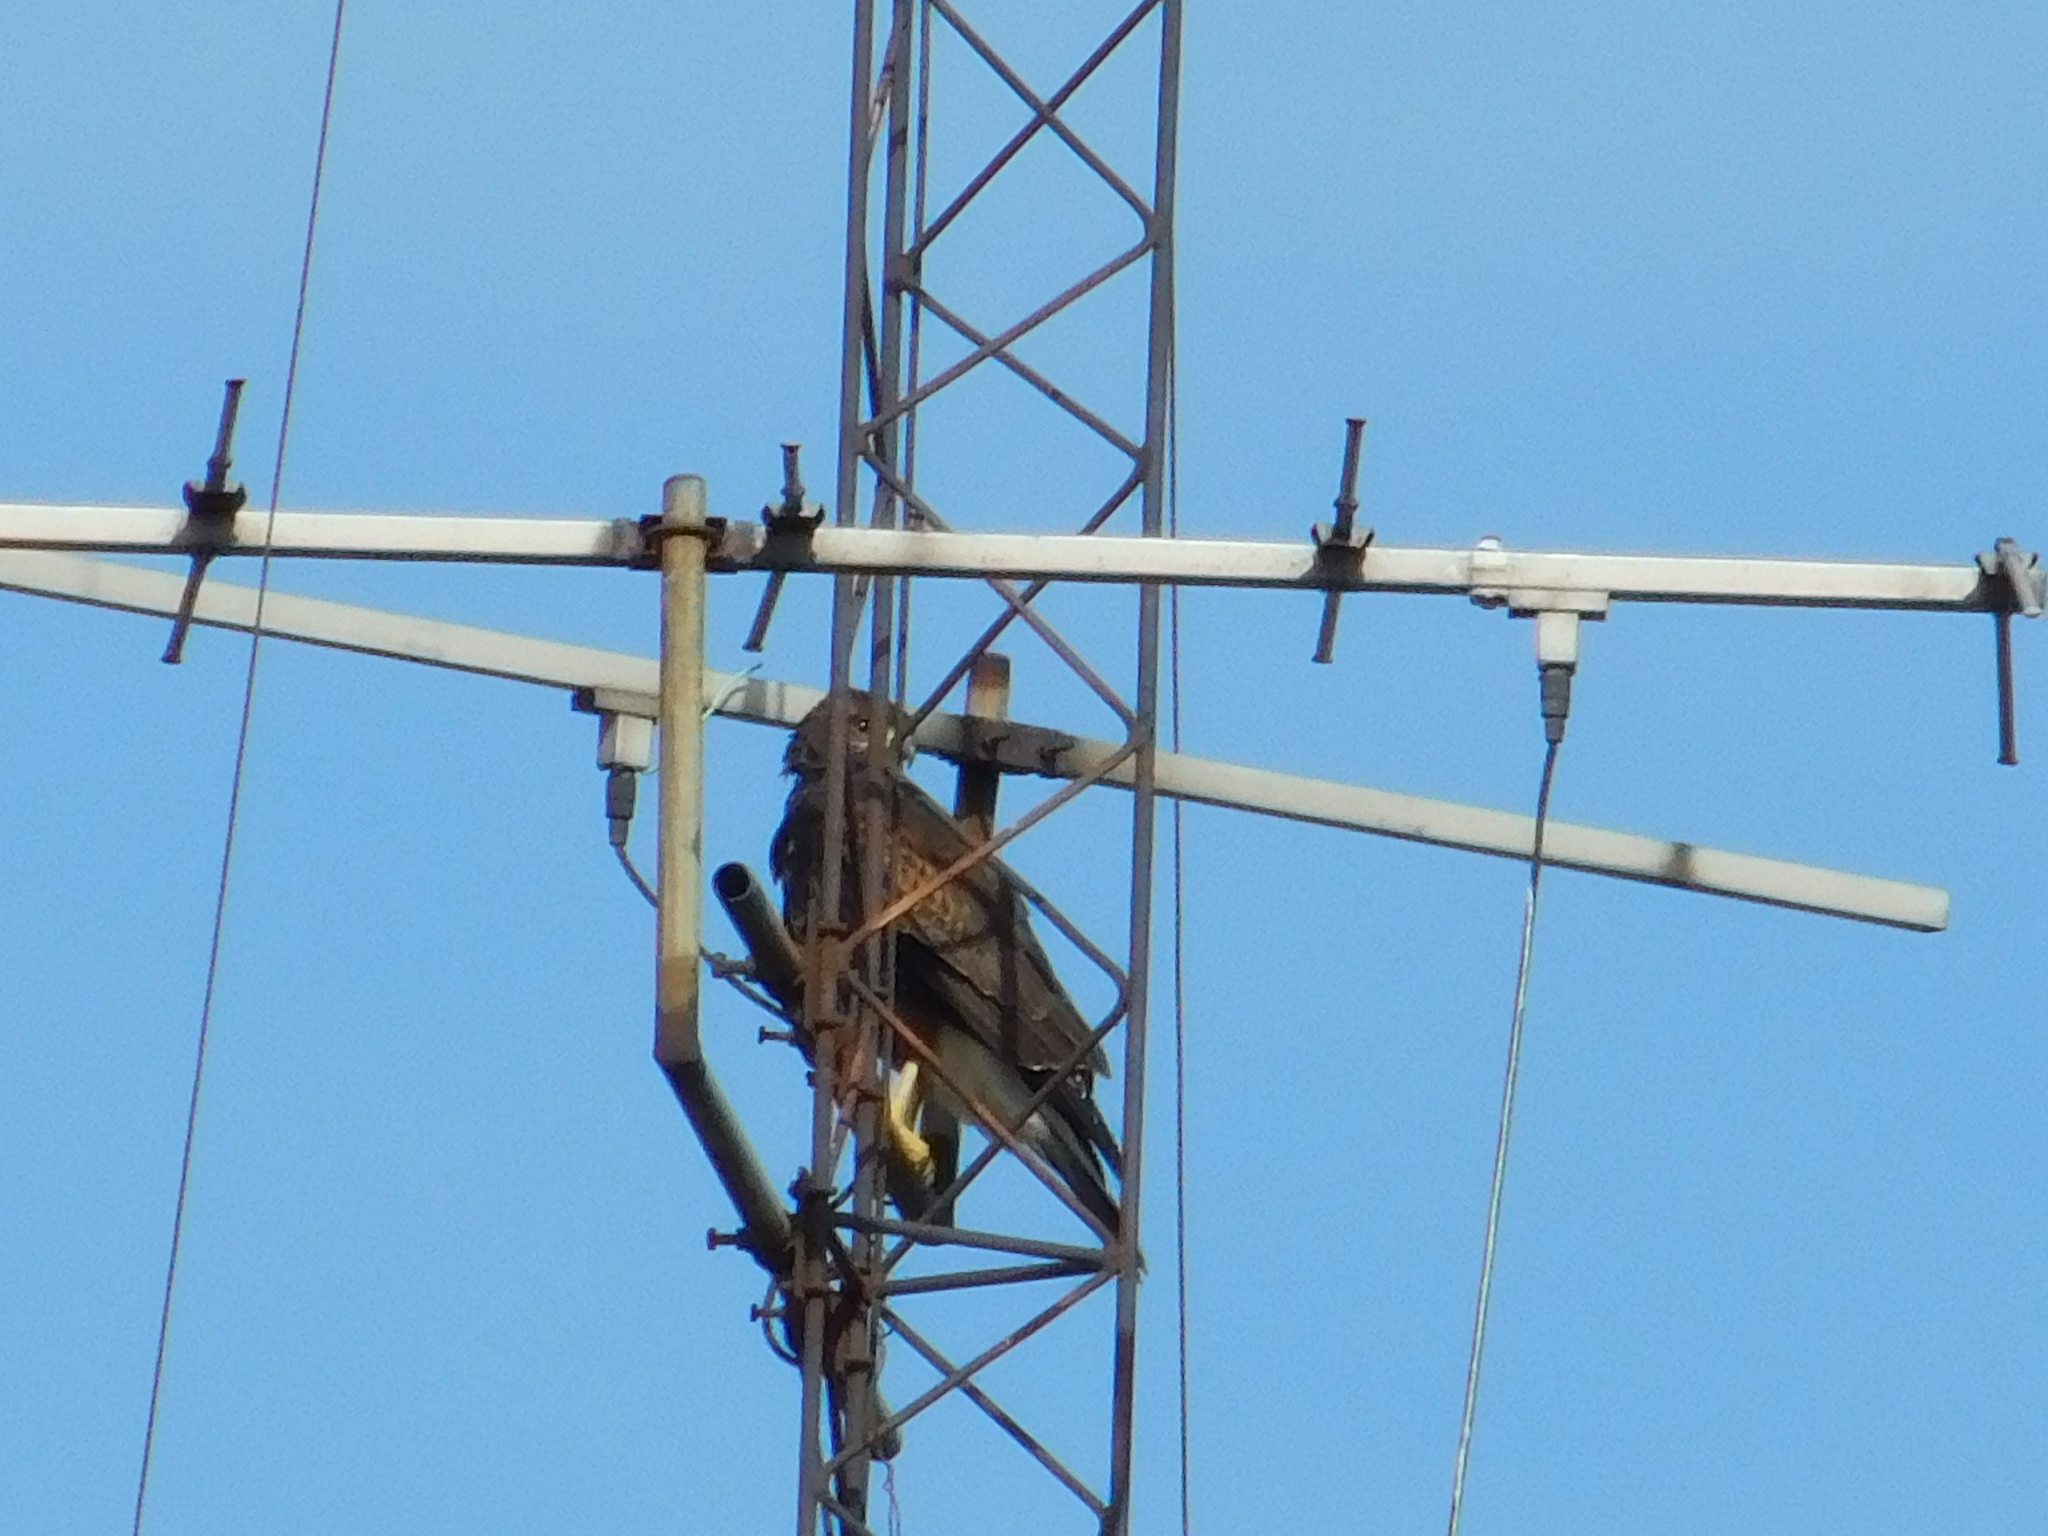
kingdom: Animalia
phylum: Chordata
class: Aves
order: Accipitriformes
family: Accipitridae
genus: Parabuteo
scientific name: Parabuteo unicinctus
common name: Harris's hawk
